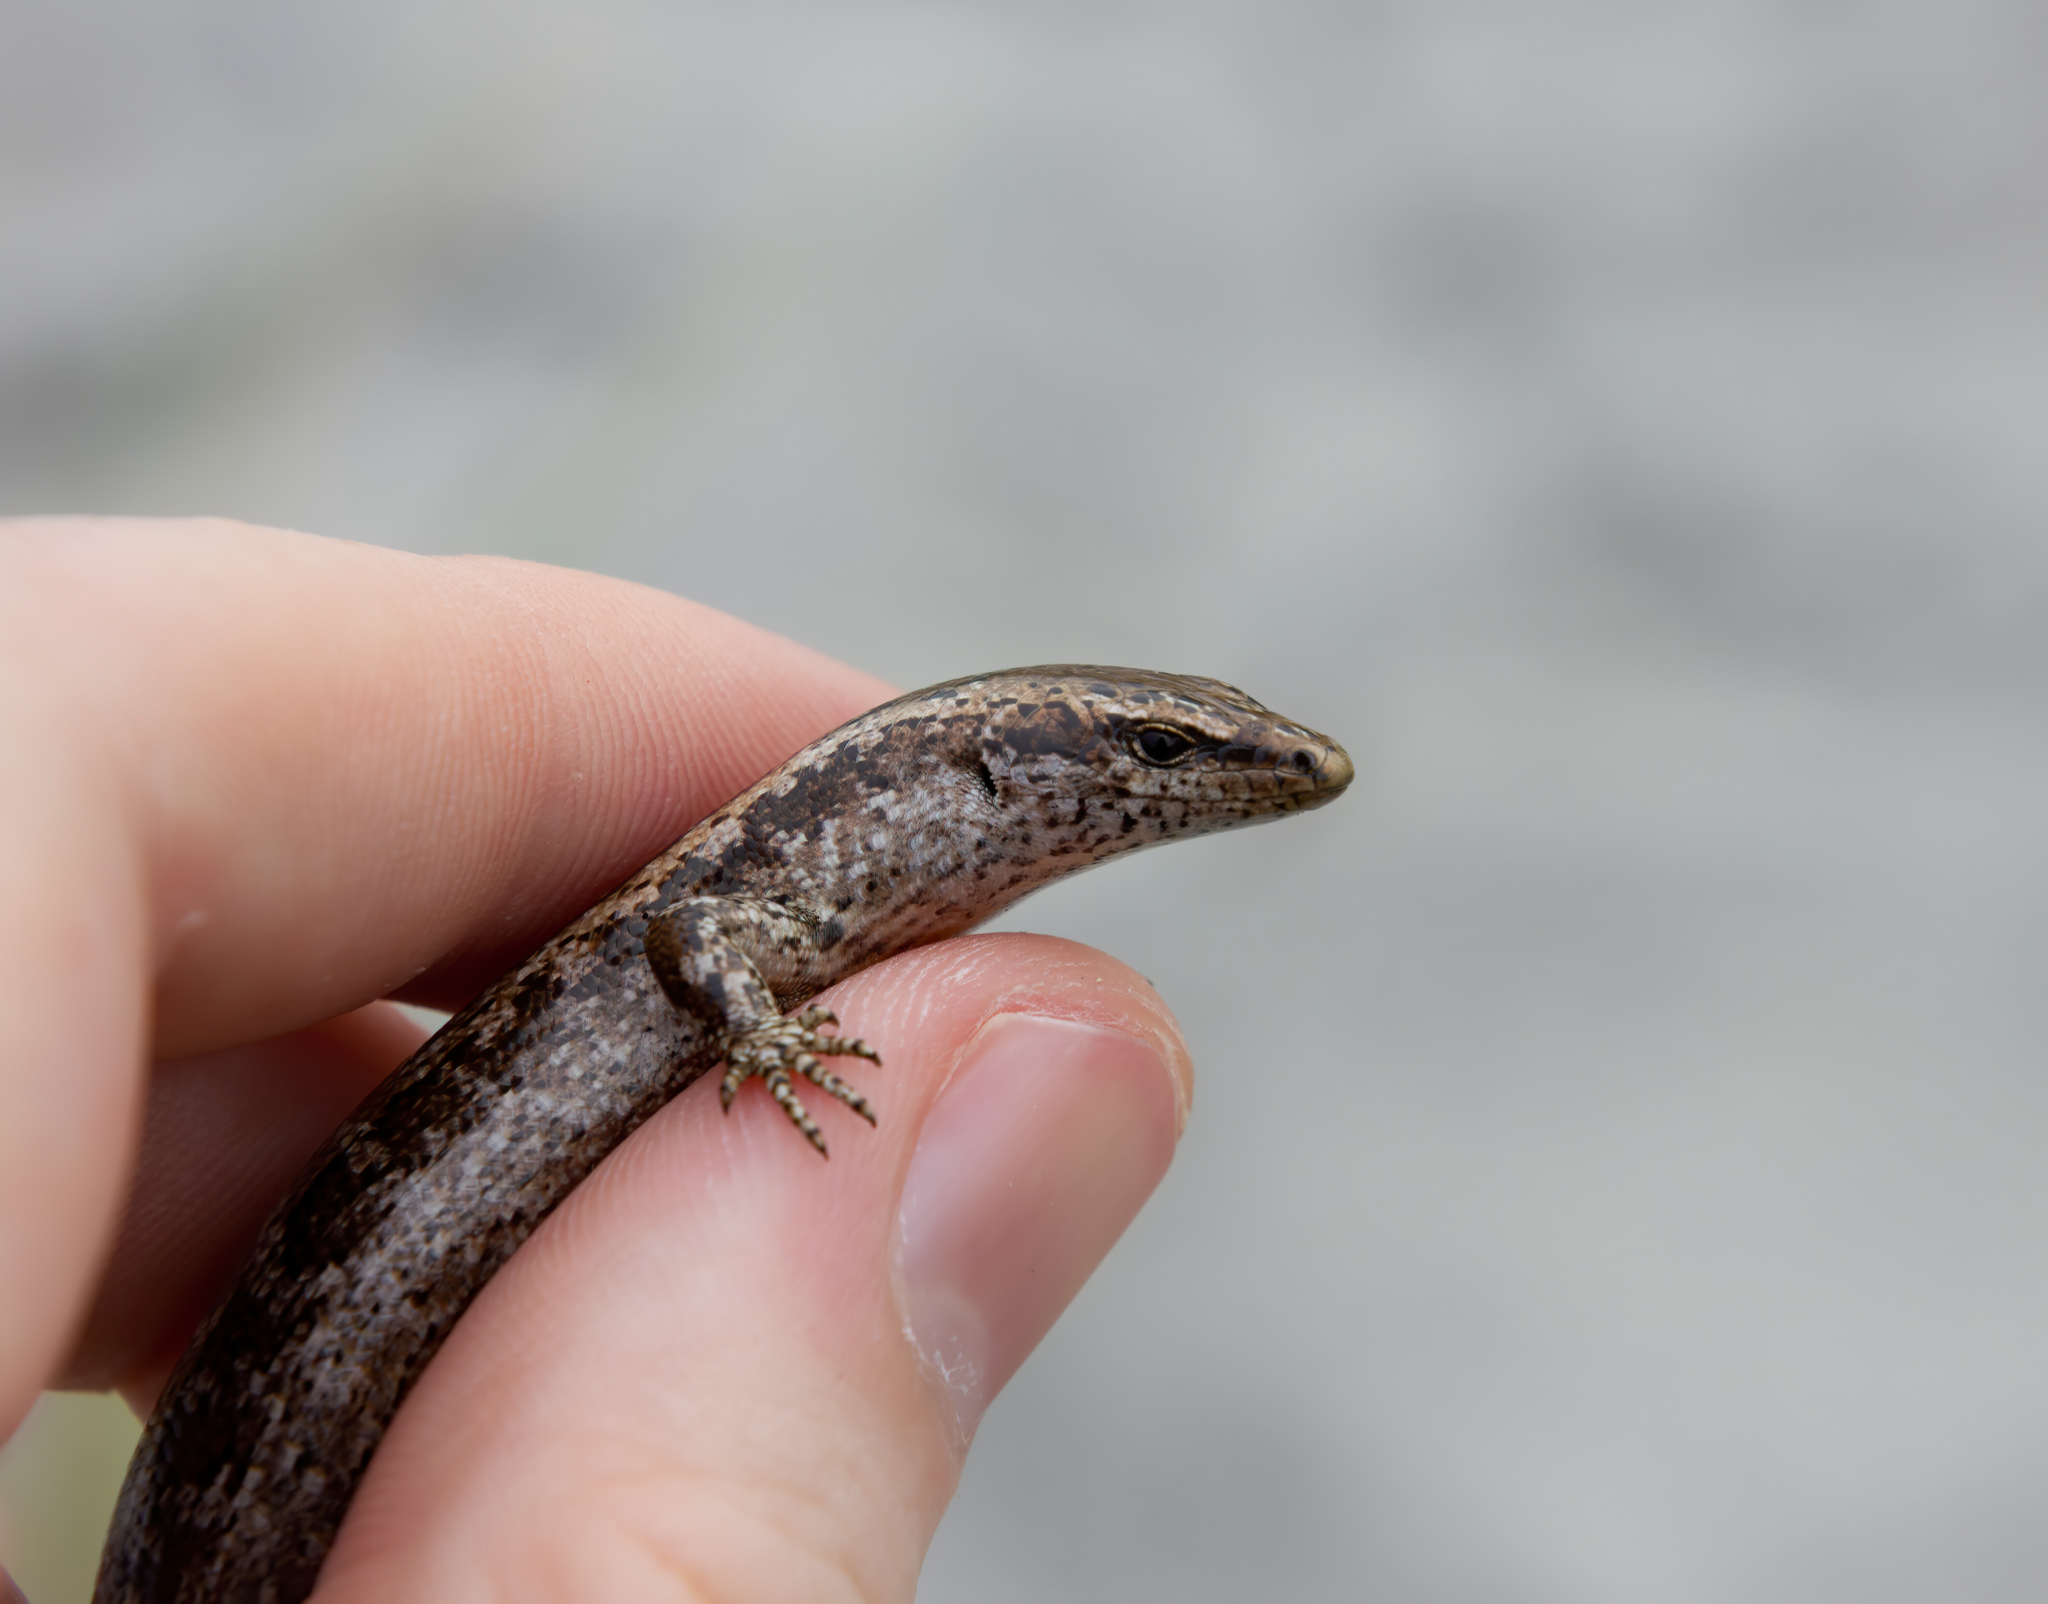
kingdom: Animalia
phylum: Chordata
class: Squamata
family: Scincidae
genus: Oligosoma
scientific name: Oligosoma smithi
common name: Shore skink
